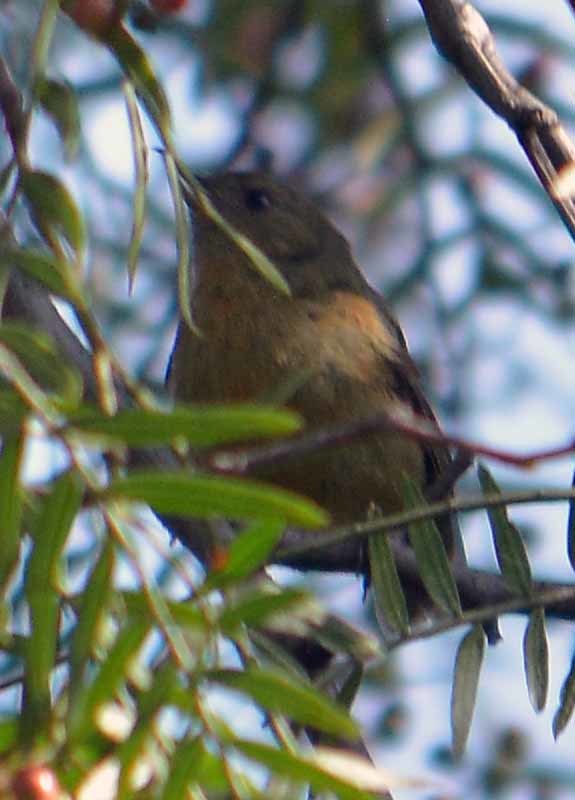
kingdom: Animalia
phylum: Chordata
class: Aves
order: Passeriformes
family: Thraupidae
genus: Diglossa
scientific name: Diglossa baritula
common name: Cinnamon-bellied flowerpiercer
